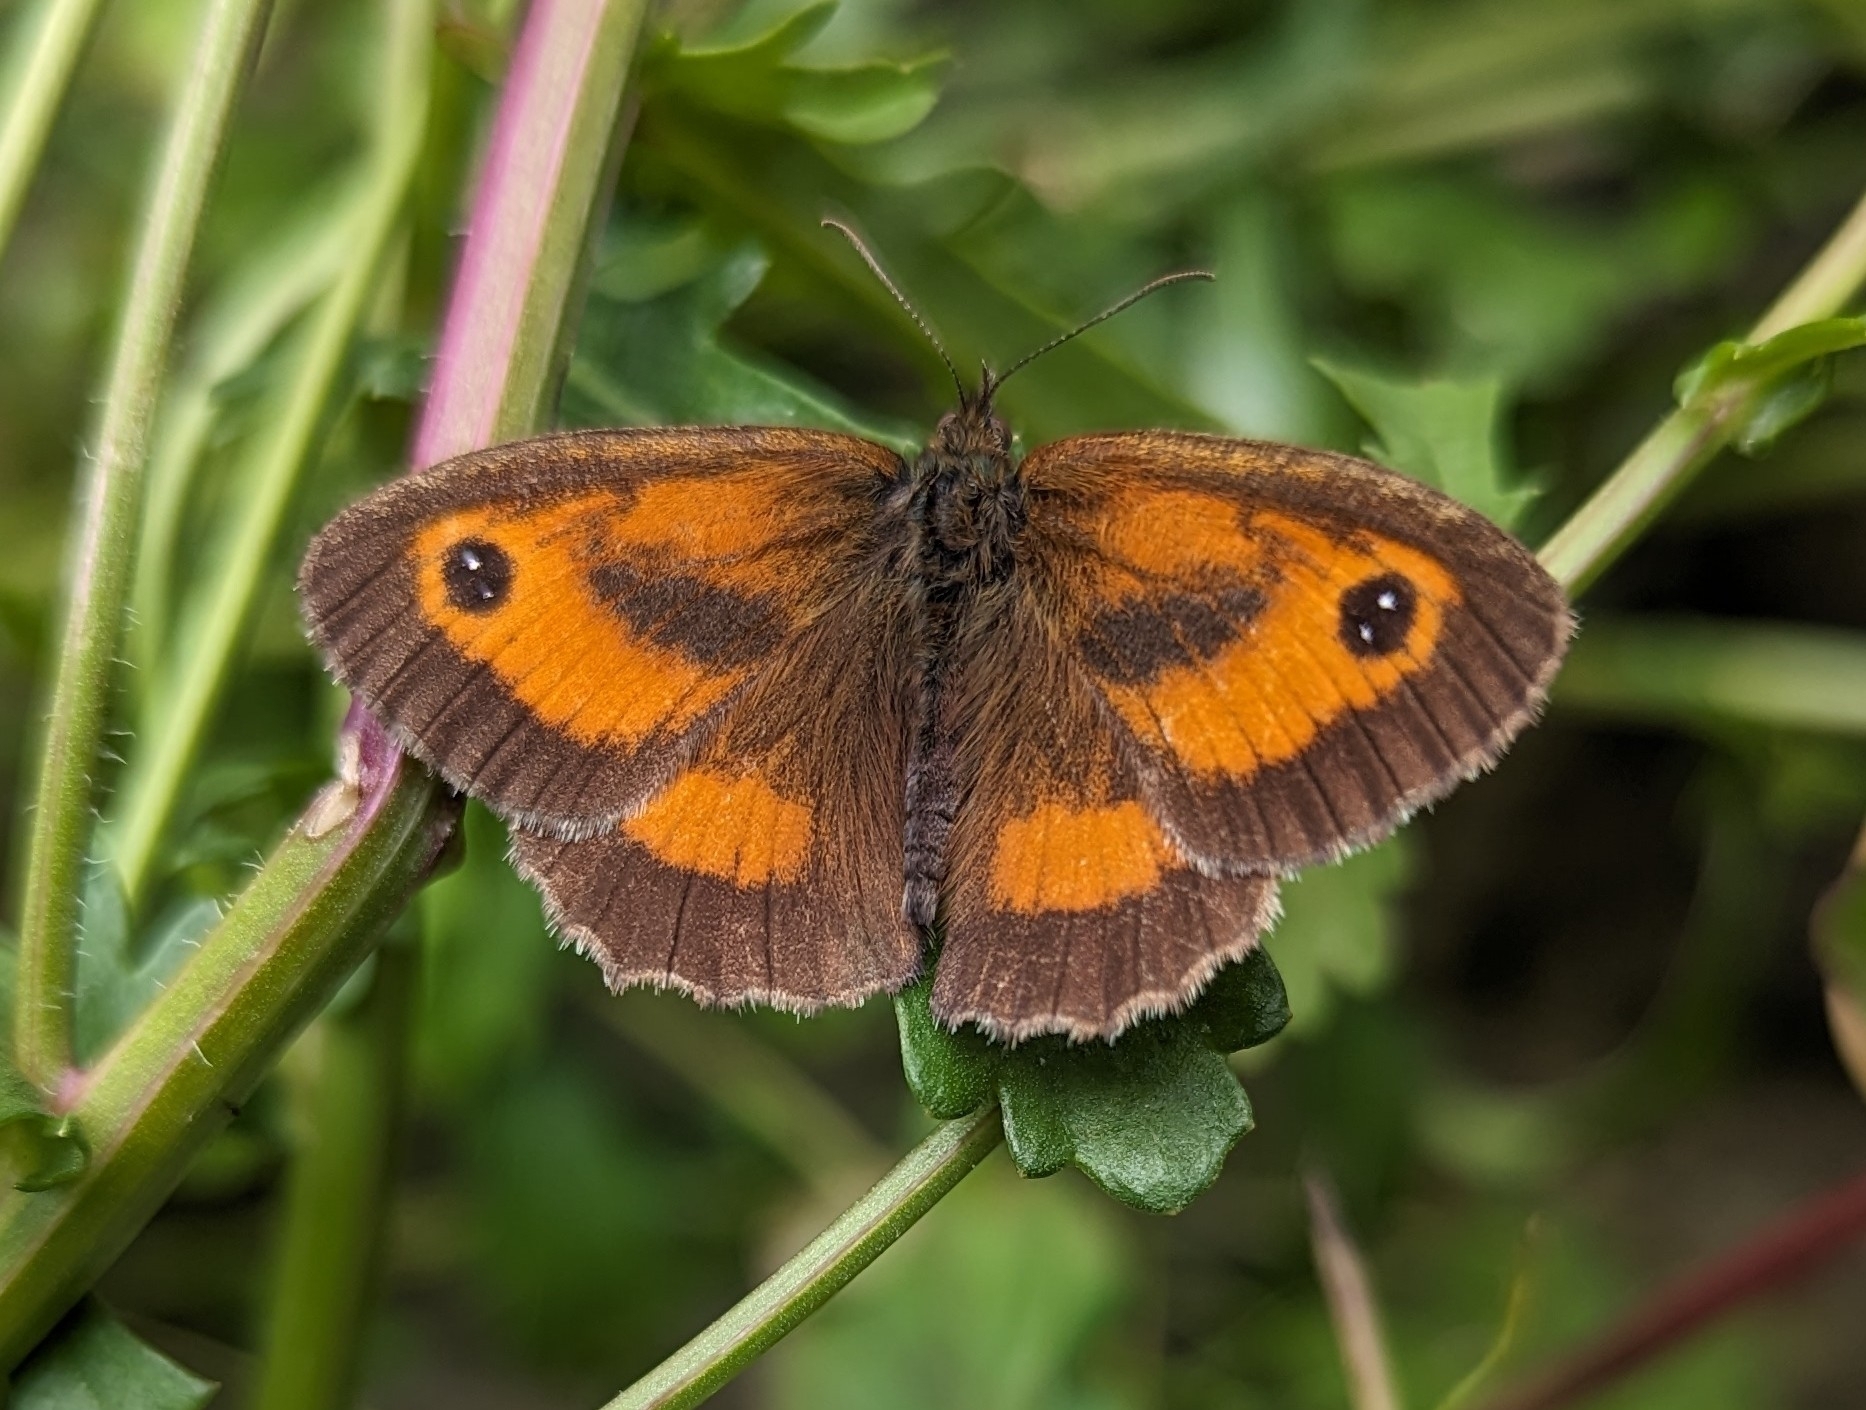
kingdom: Animalia
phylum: Arthropoda
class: Insecta
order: Lepidoptera
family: Nymphalidae
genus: Pyronia
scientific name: Pyronia tithonus
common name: Gatekeeper
